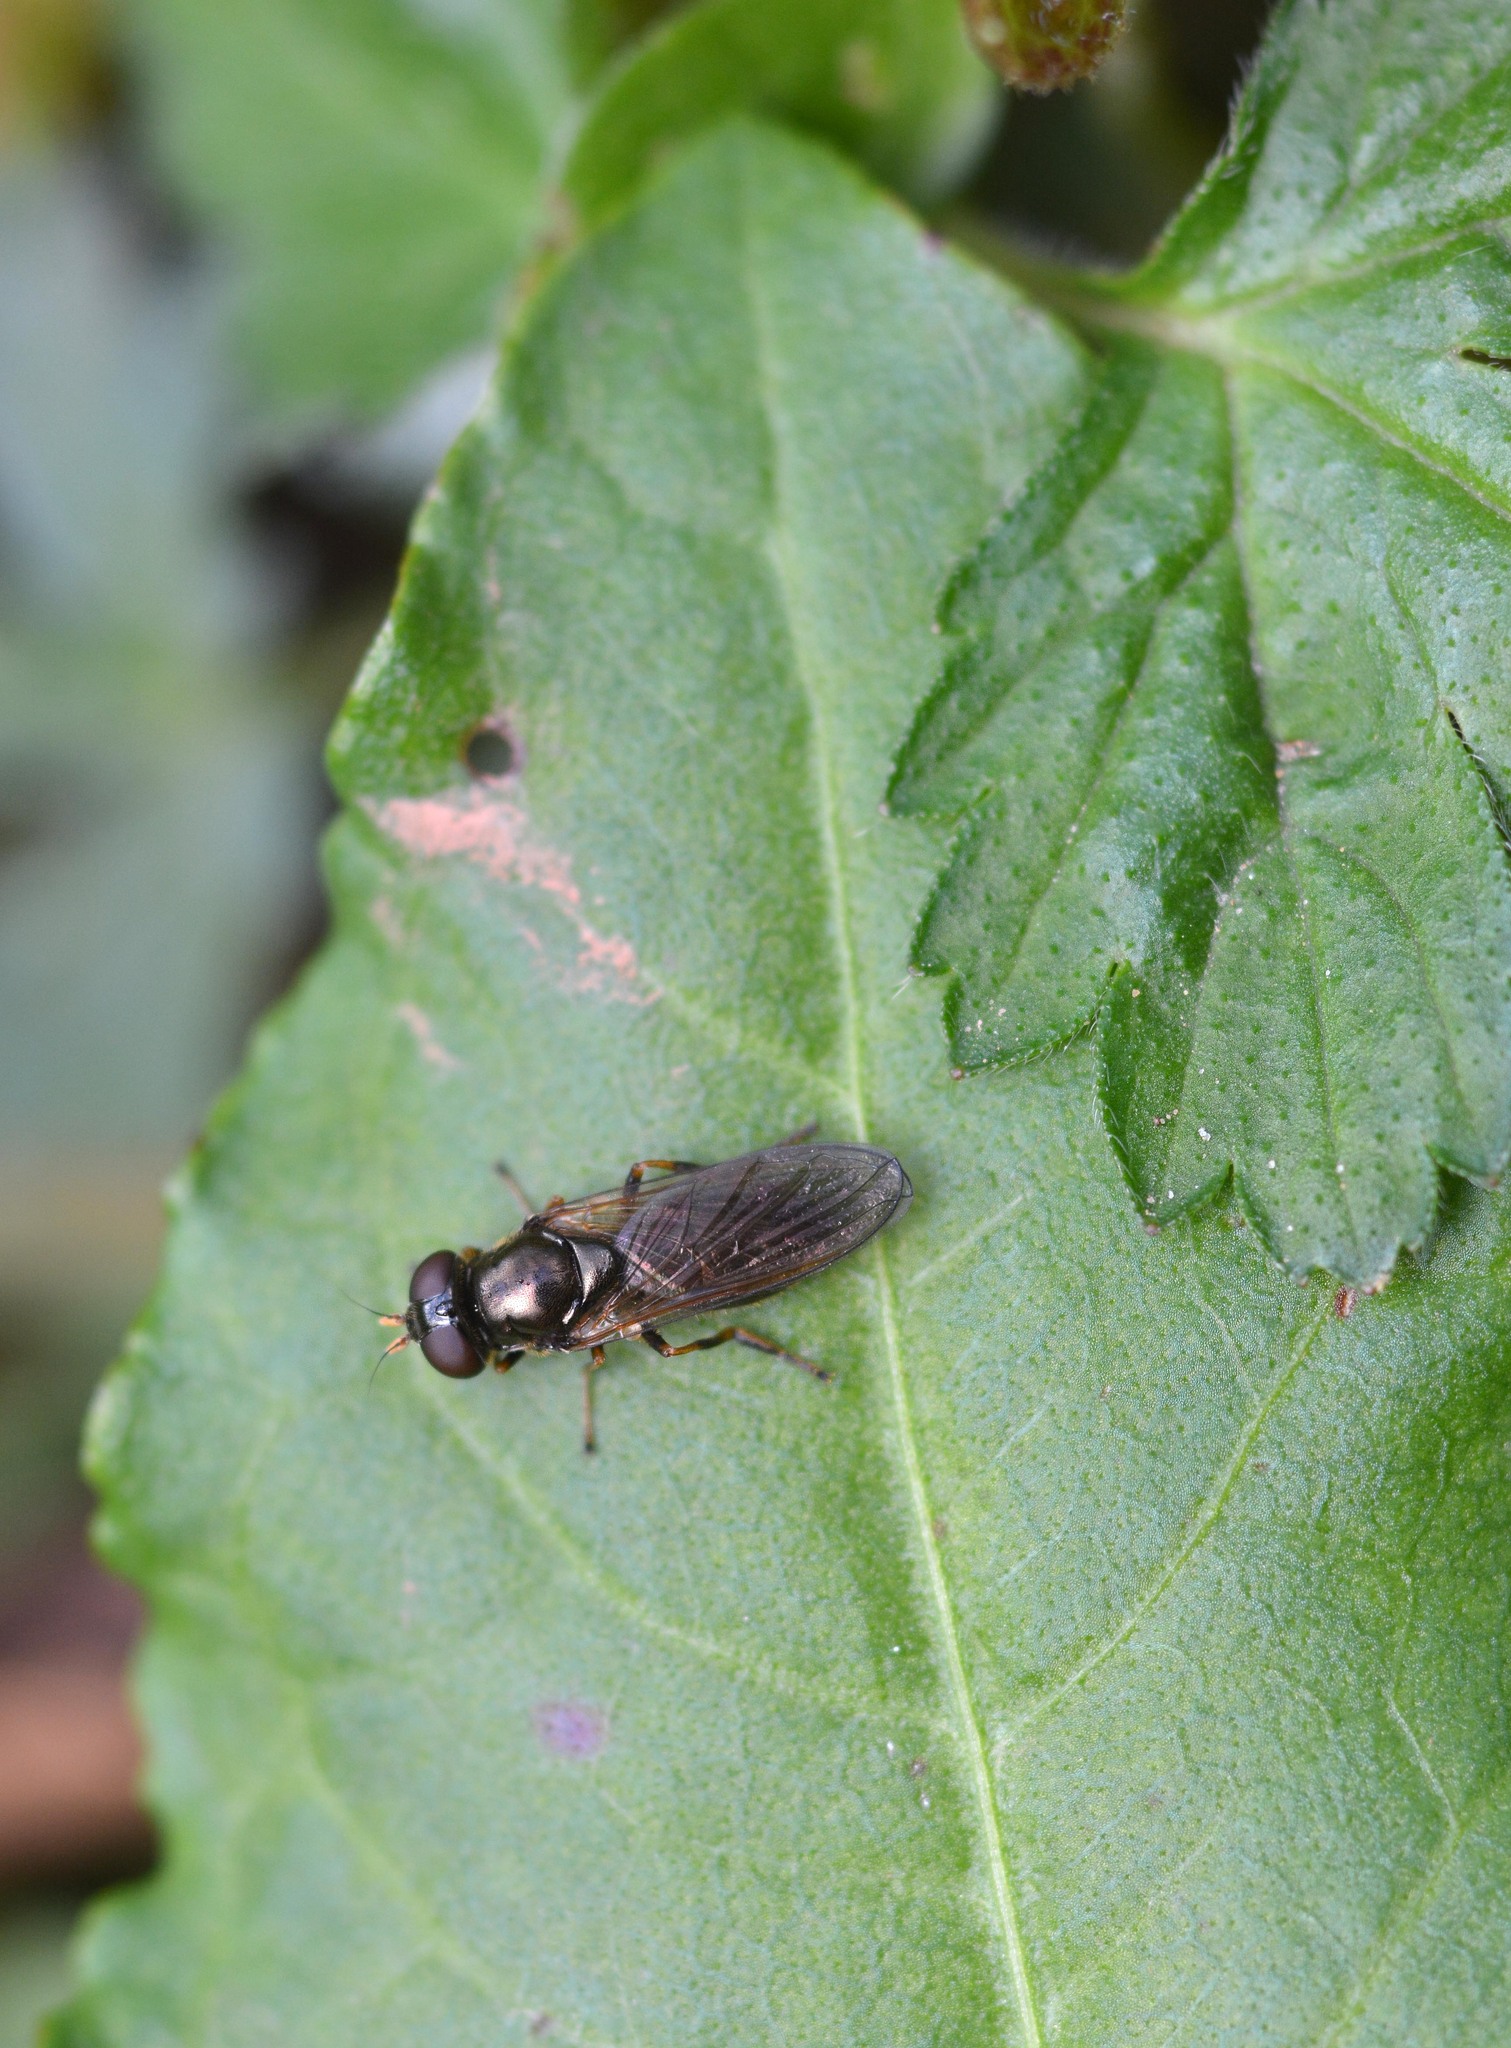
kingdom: Animalia
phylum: Arthropoda
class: Insecta
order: Diptera
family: Syrphidae
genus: Cheilosia
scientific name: Cheilosia pagana
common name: Hover fly
